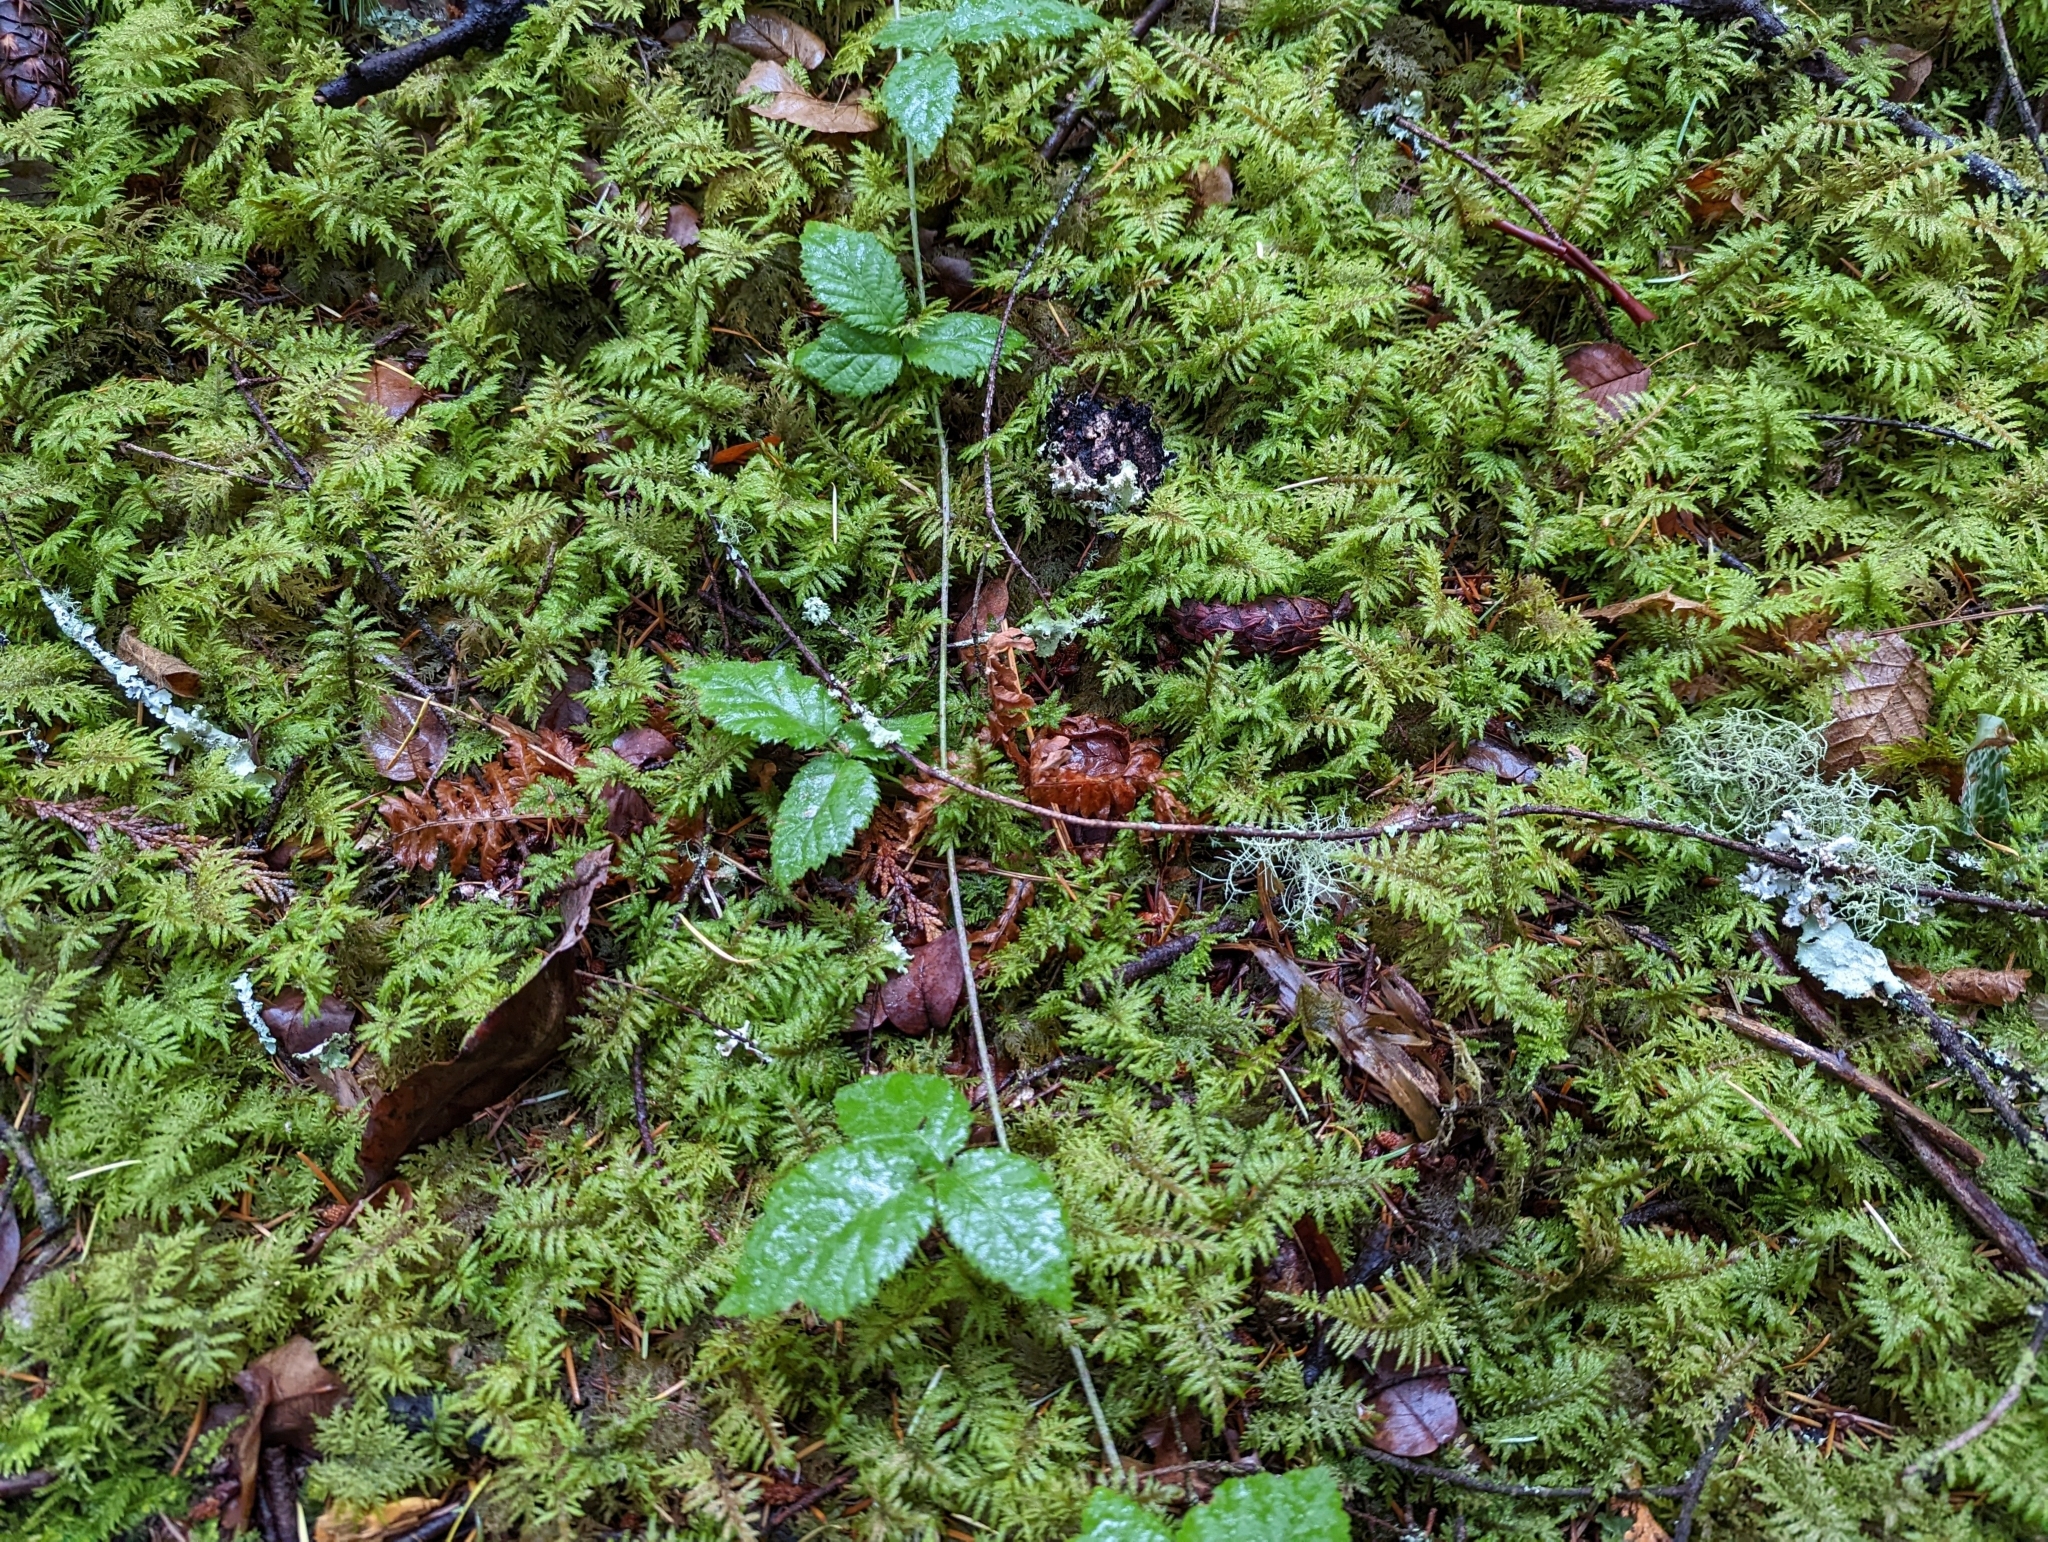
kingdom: Plantae
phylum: Bryophyta
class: Bryopsida
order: Hypnales
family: Hylocomiaceae
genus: Hylocomium
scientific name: Hylocomium splendens
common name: Stairstep moss
